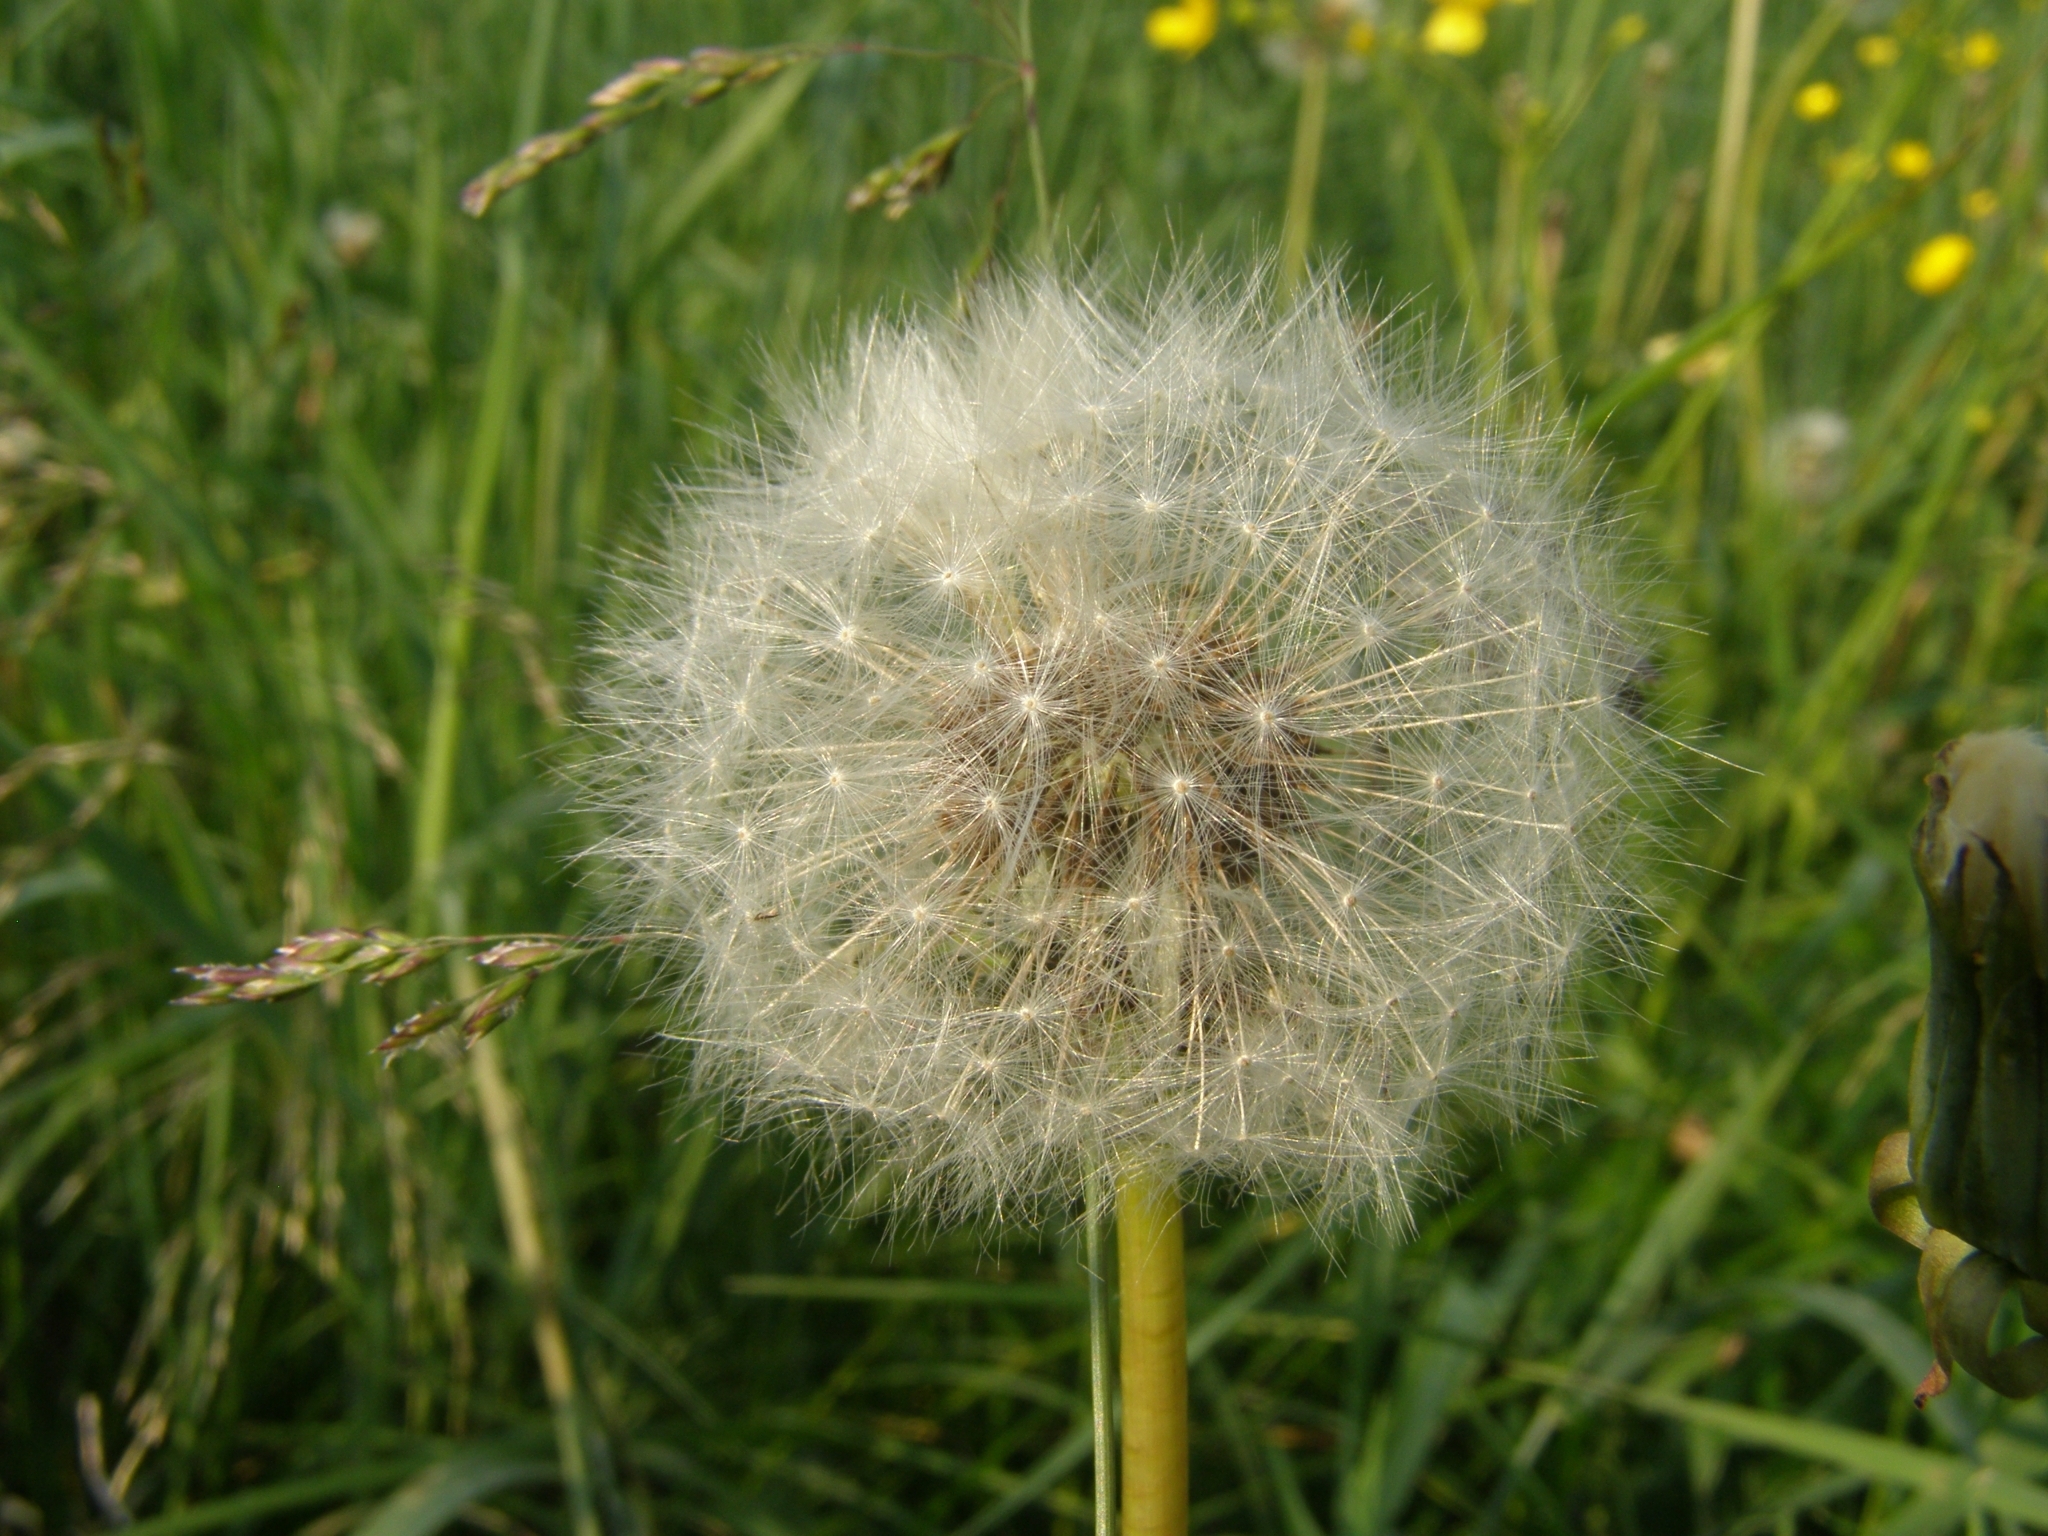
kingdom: Plantae
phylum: Tracheophyta
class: Magnoliopsida
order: Asterales
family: Asteraceae
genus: Taraxacum
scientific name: Taraxacum officinale
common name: Common dandelion
